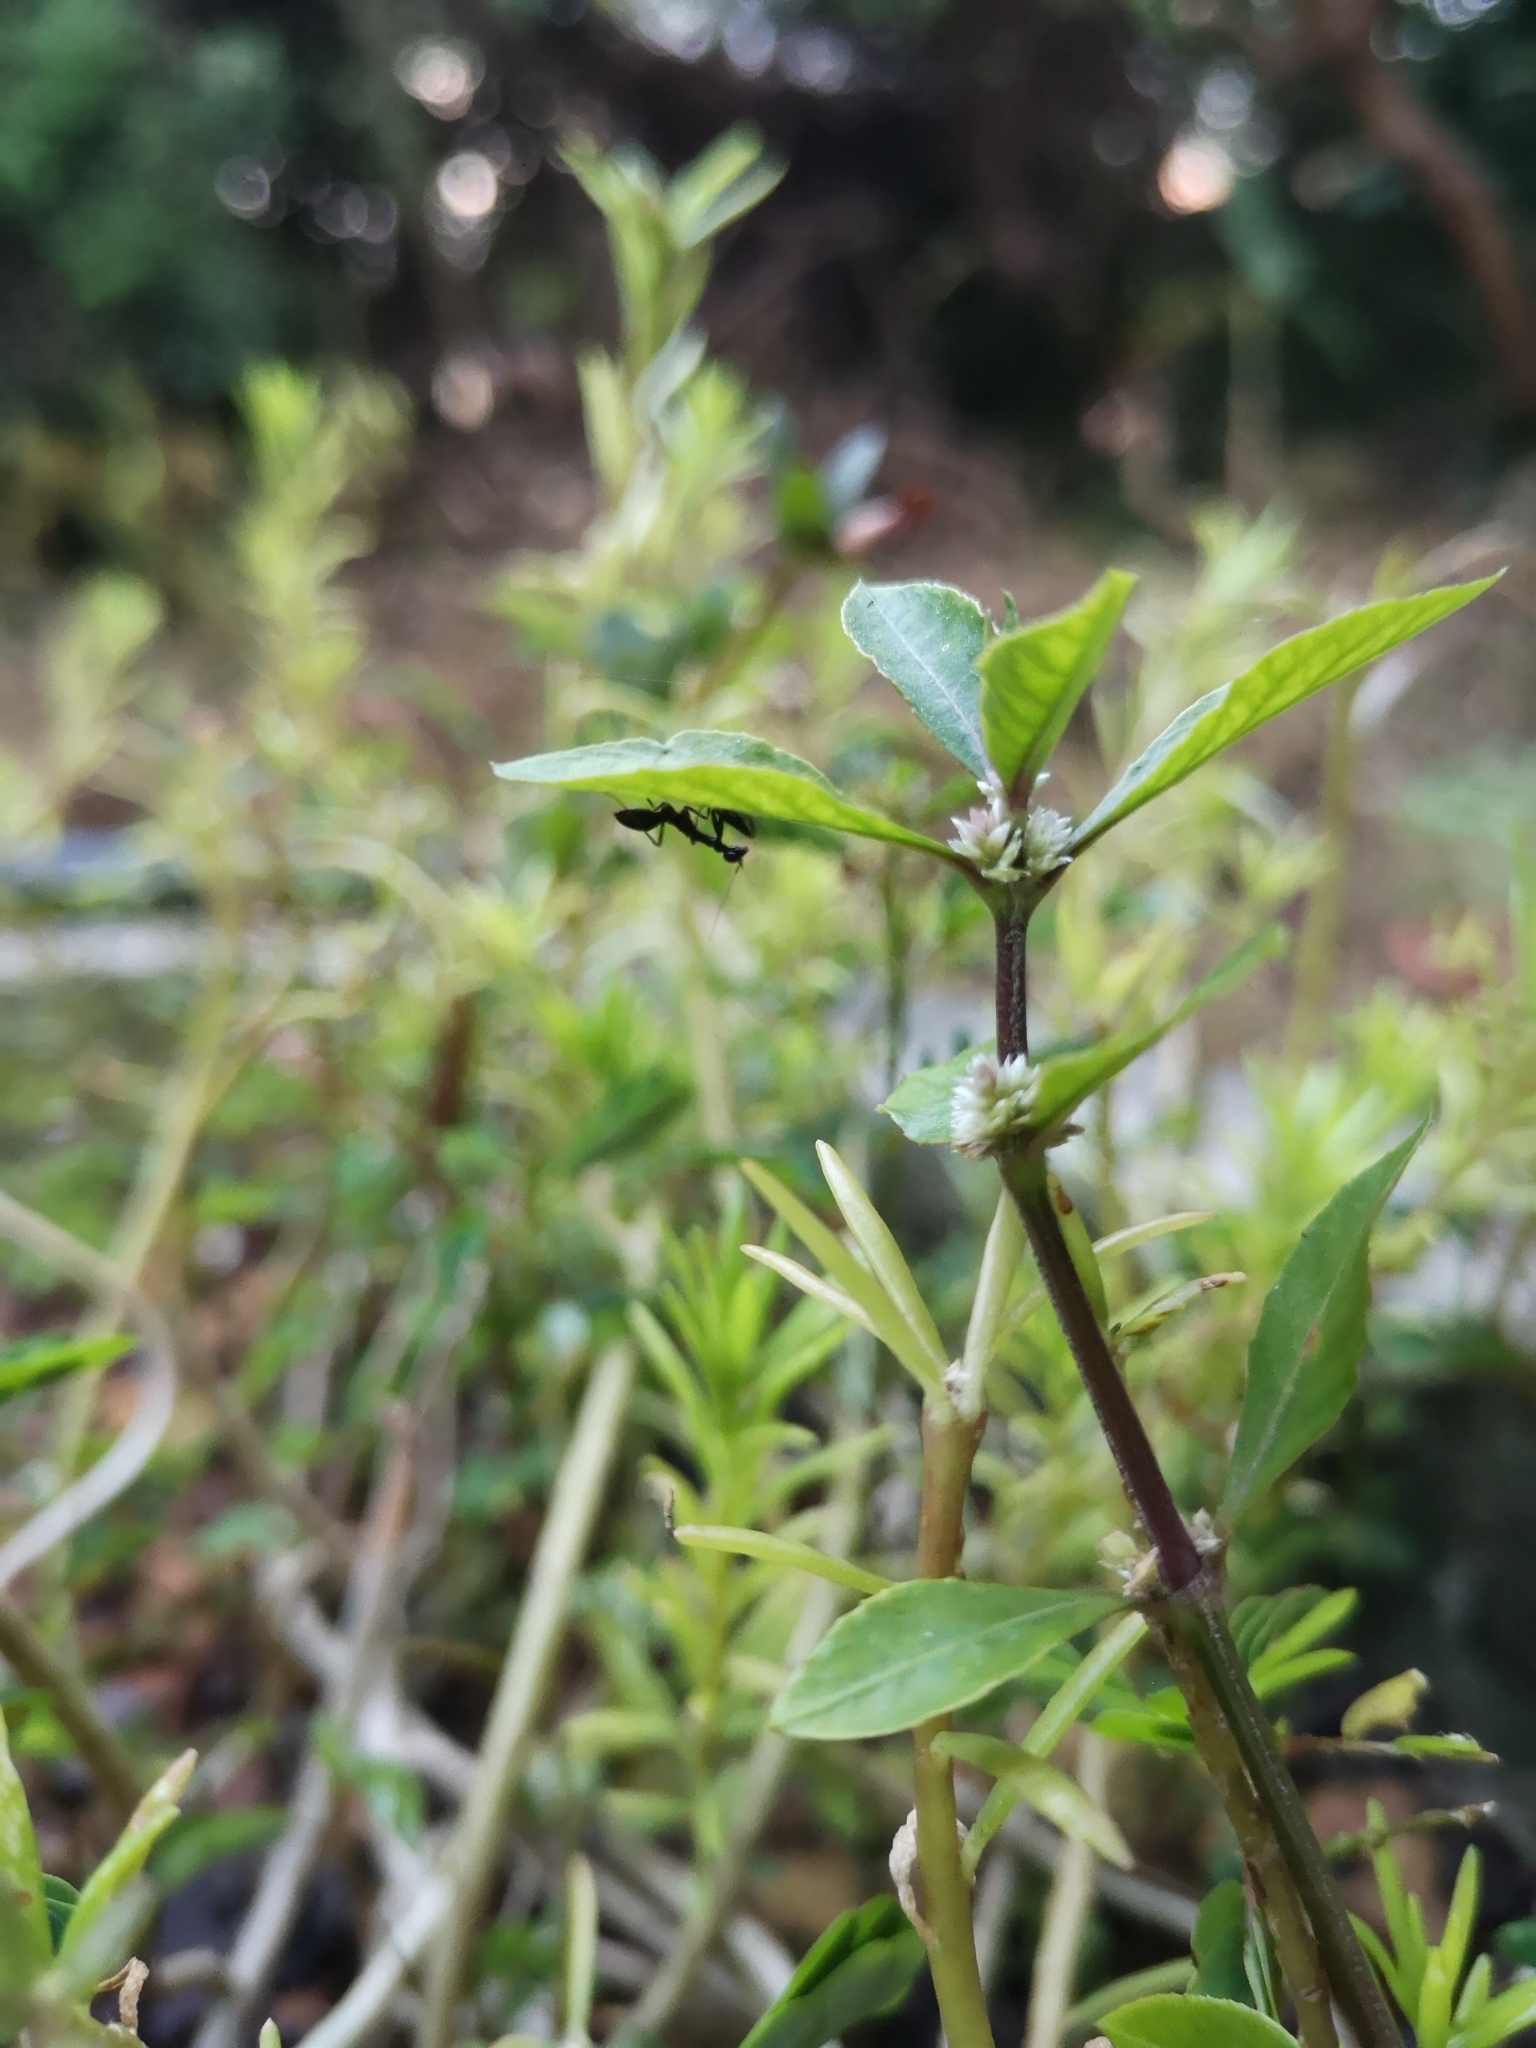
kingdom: Animalia
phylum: Arthropoda
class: Insecta
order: Mantodea
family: Hymenopodidae
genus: Odontomantis
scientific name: Odontomantis planiceps
